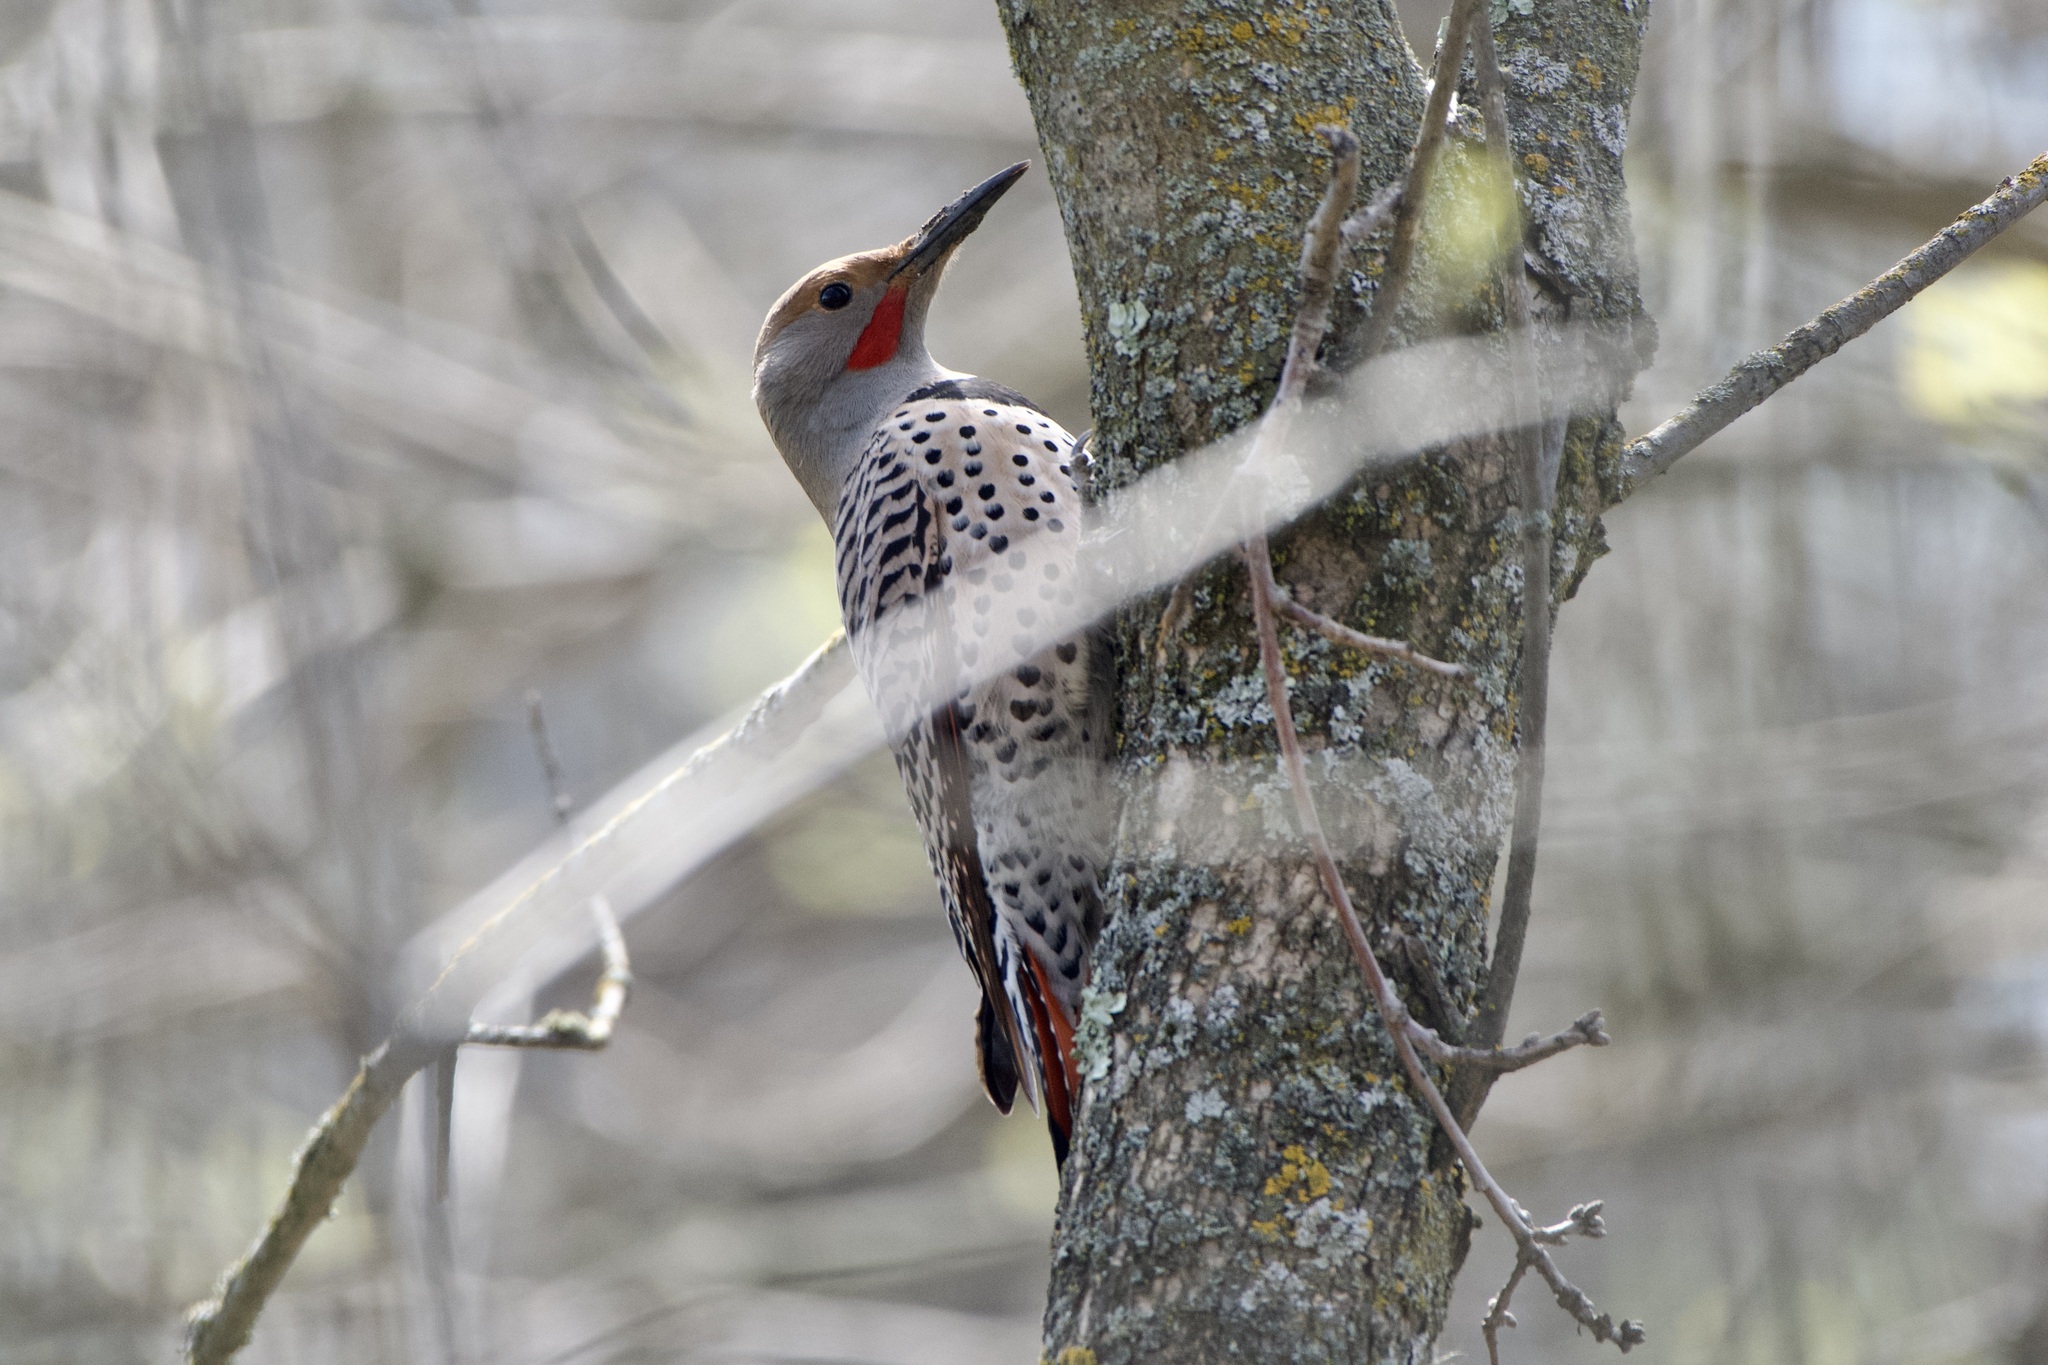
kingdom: Animalia
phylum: Chordata
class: Aves
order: Piciformes
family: Picidae
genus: Colaptes
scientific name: Colaptes auratus
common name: Northern flicker
